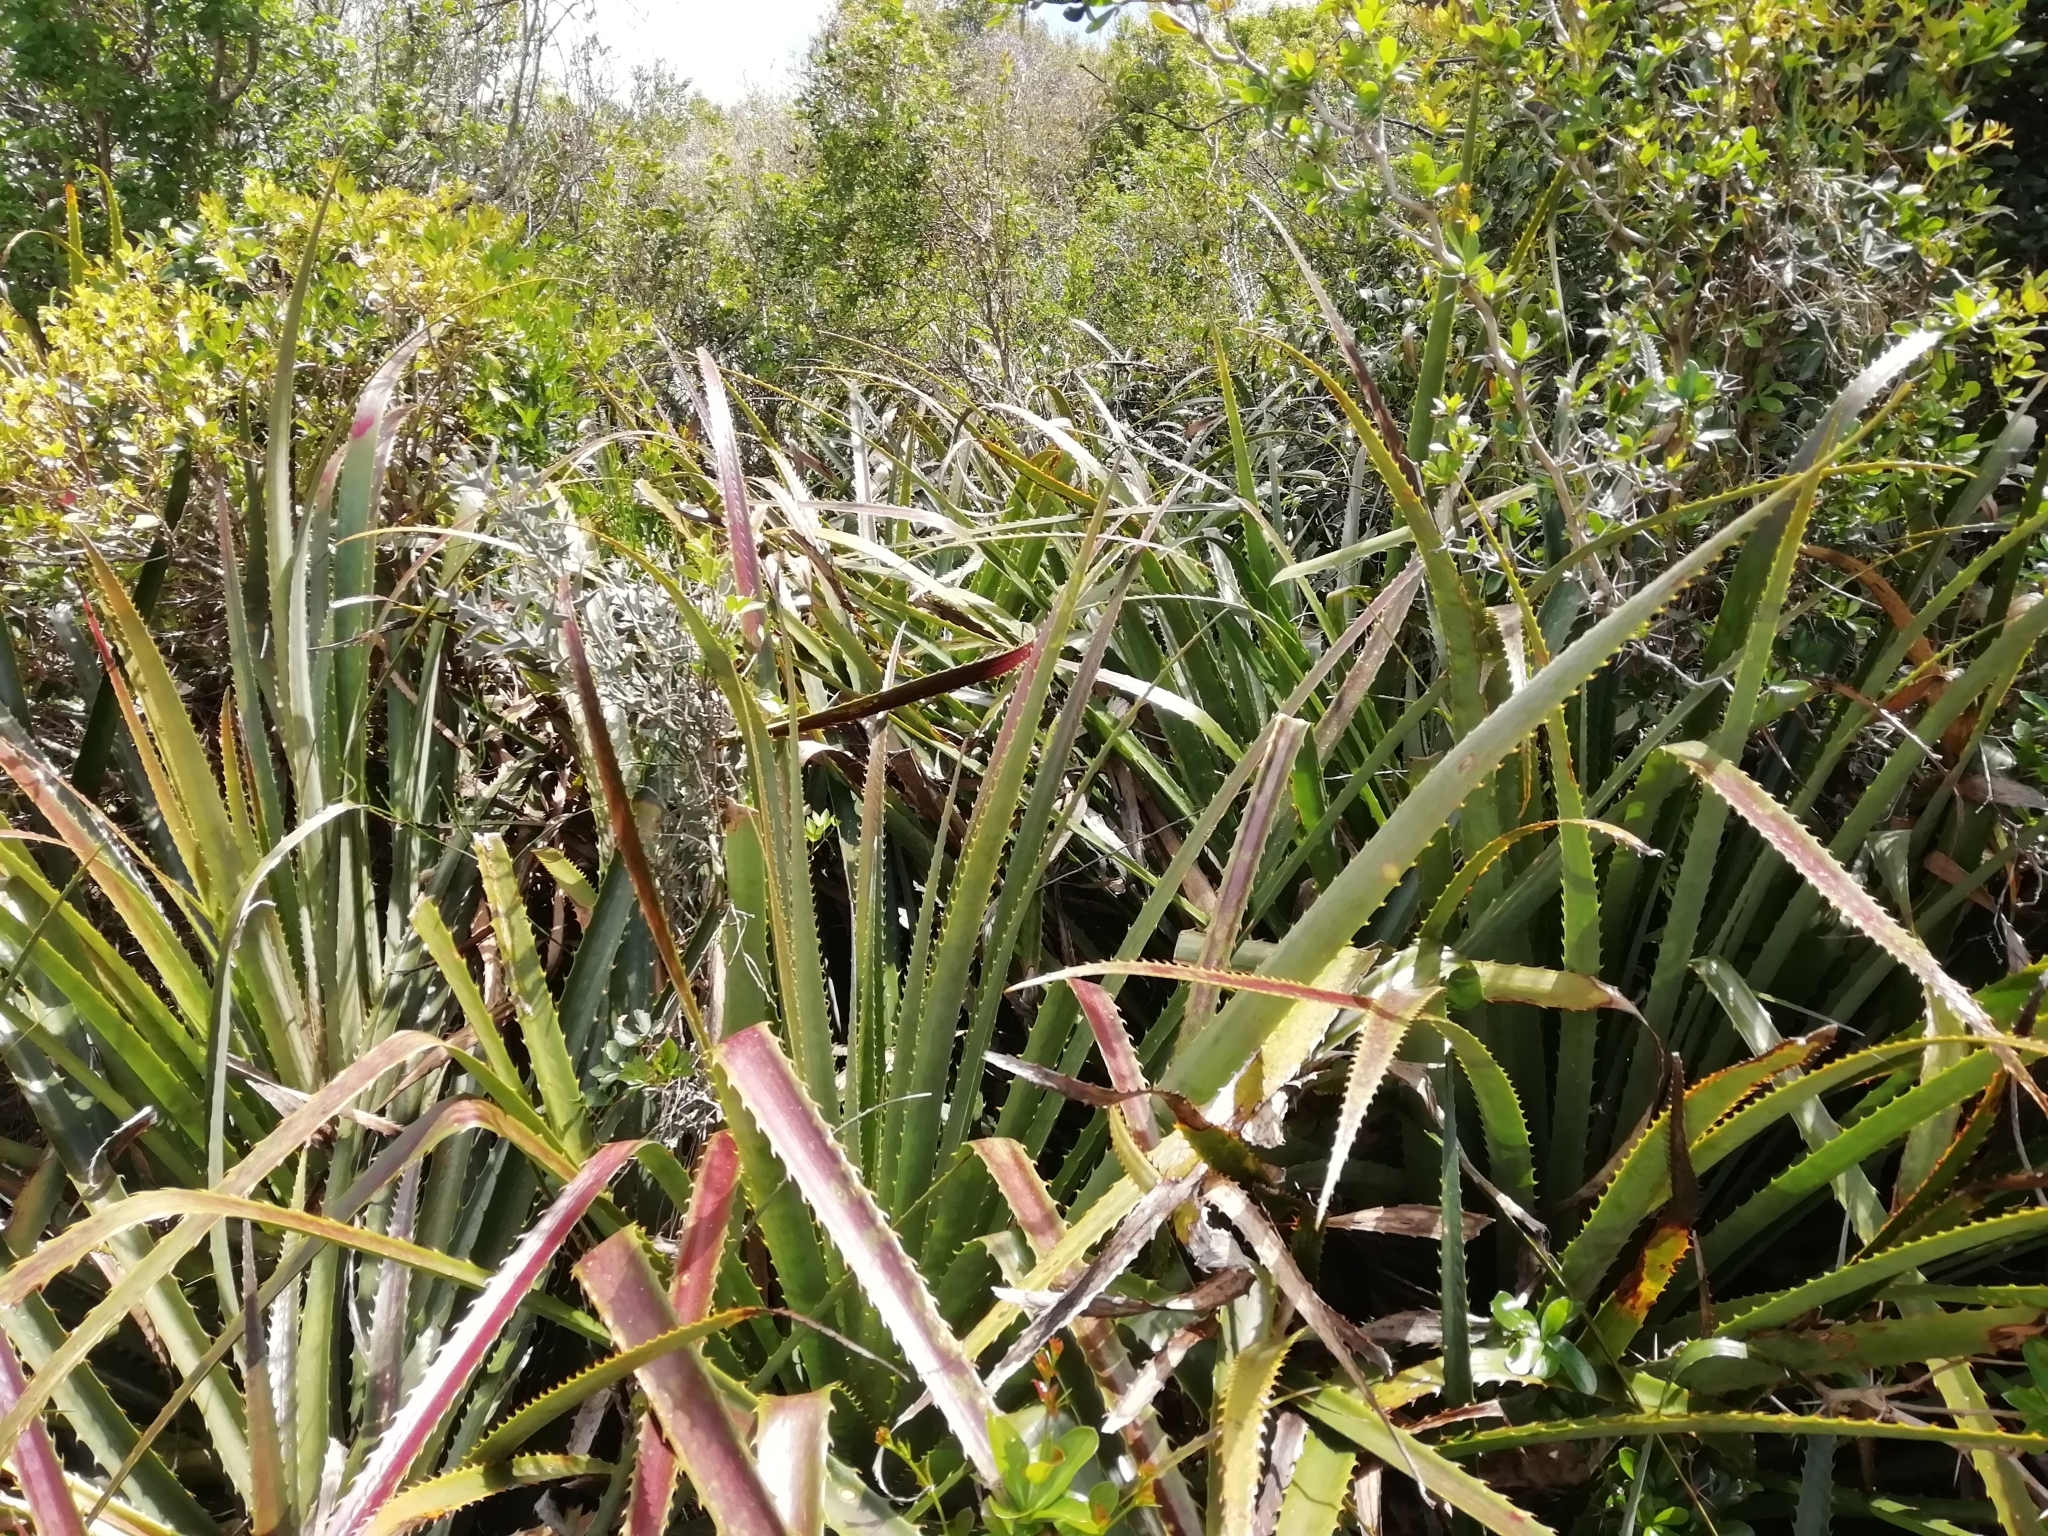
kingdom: Plantae
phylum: Tracheophyta
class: Liliopsida
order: Poales
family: Bromeliaceae
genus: Bromelia
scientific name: Bromelia antiacantha
